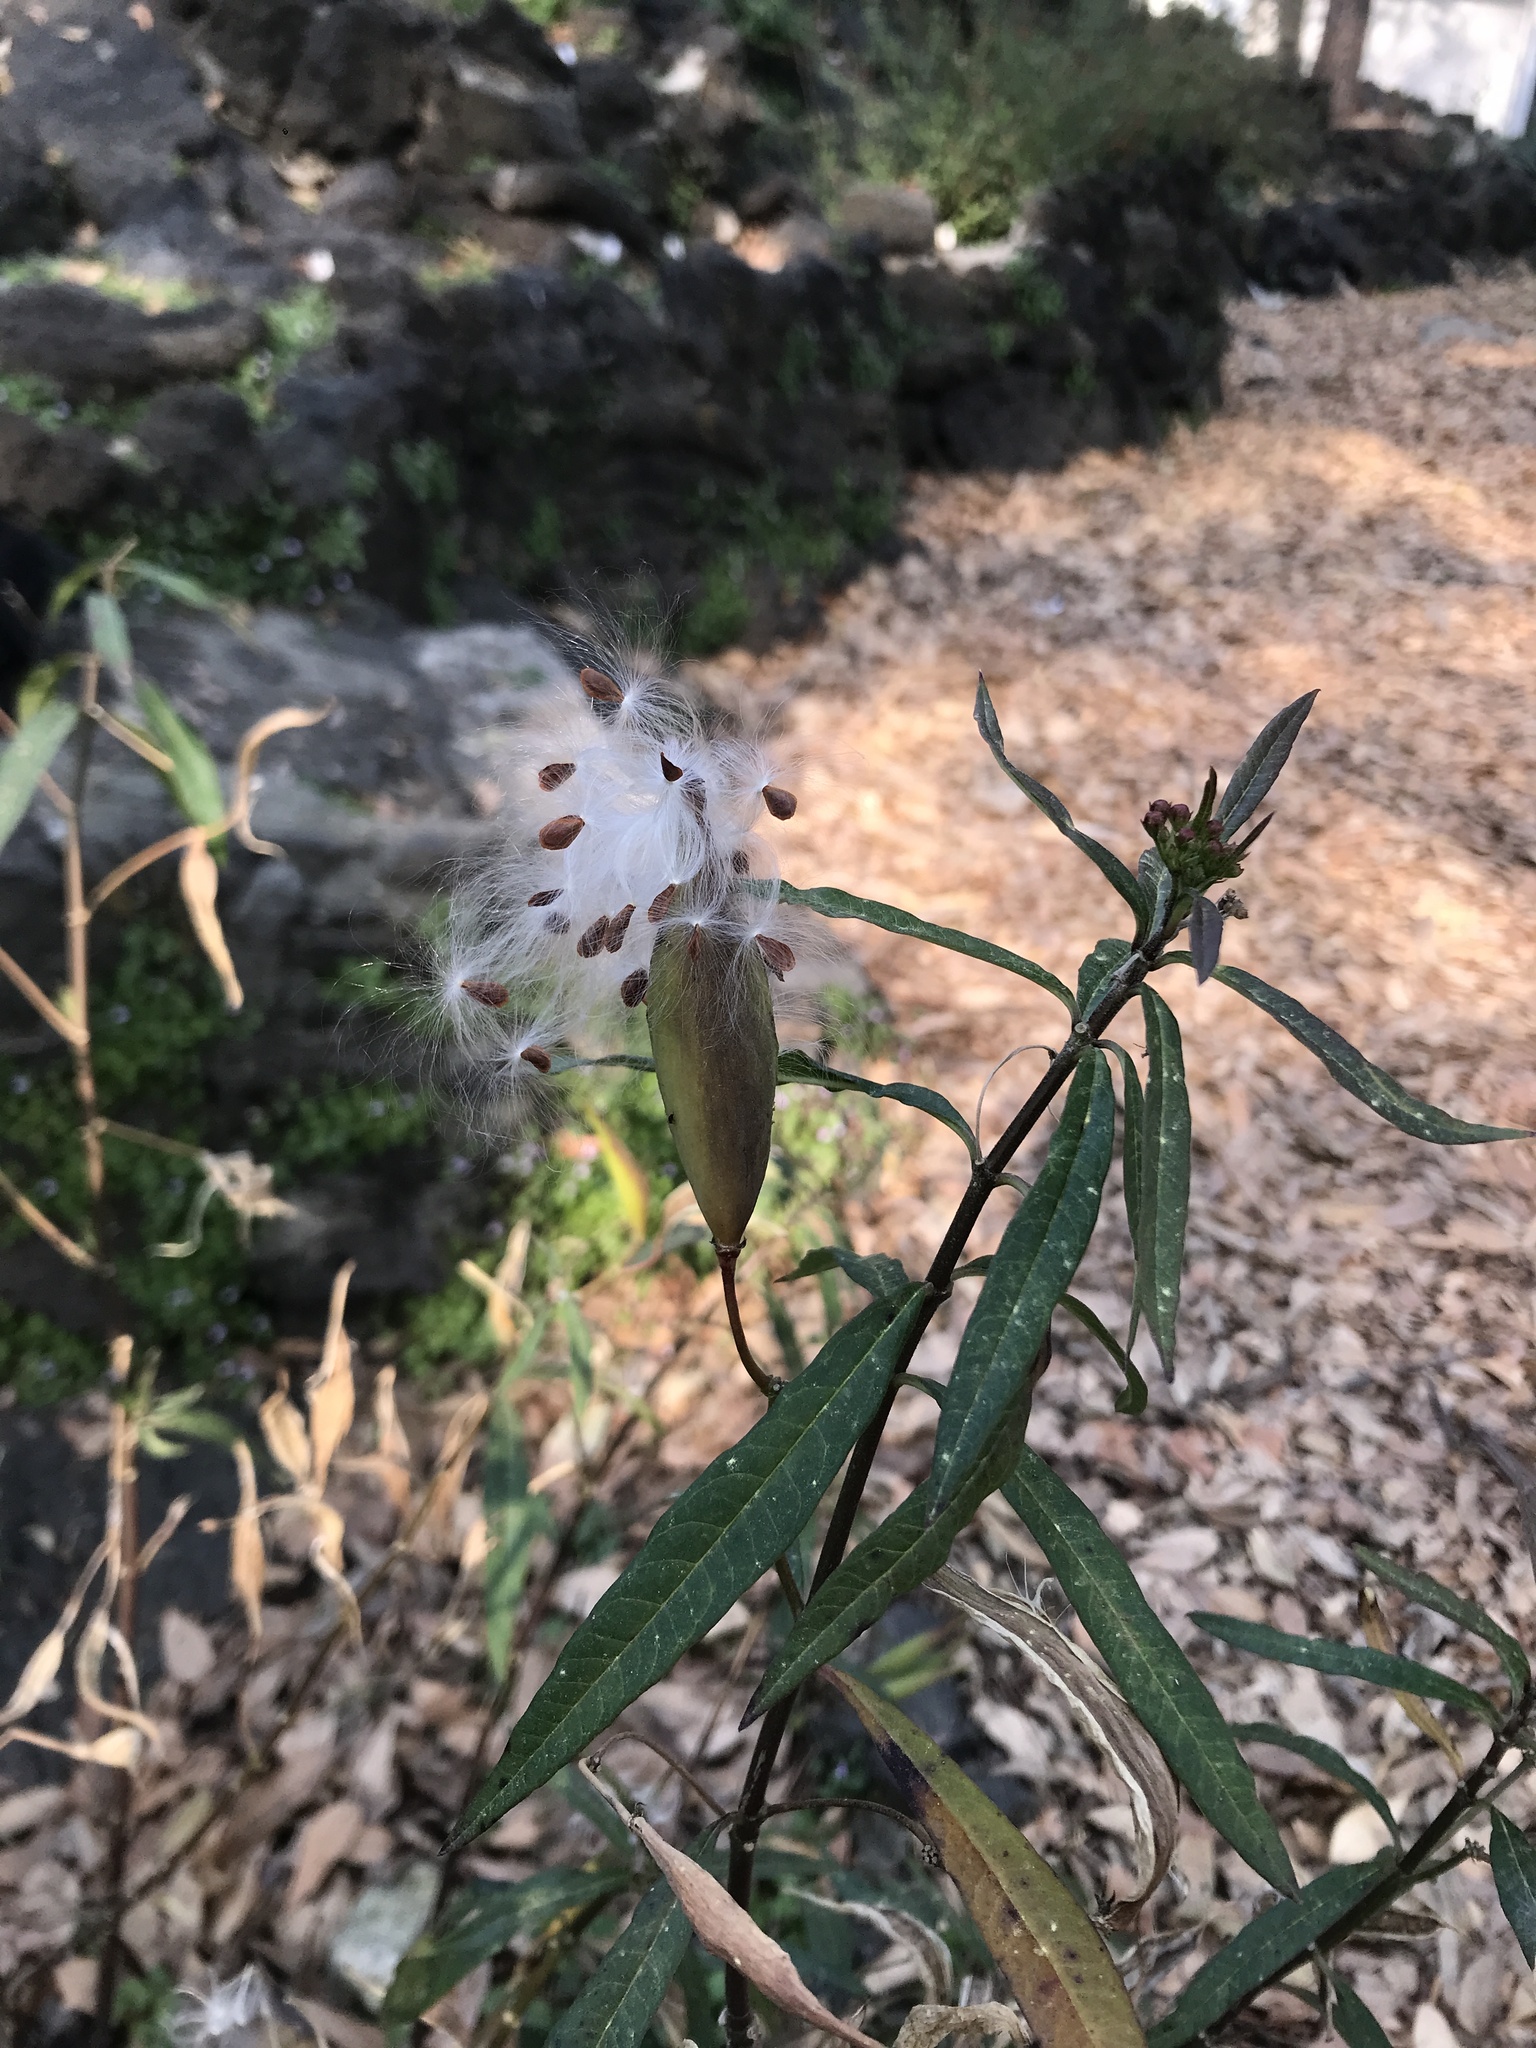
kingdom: Plantae
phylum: Tracheophyta
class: Magnoliopsida
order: Gentianales
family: Apocynaceae
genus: Asclepias
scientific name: Asclepias curassavica
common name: Bloodflower
